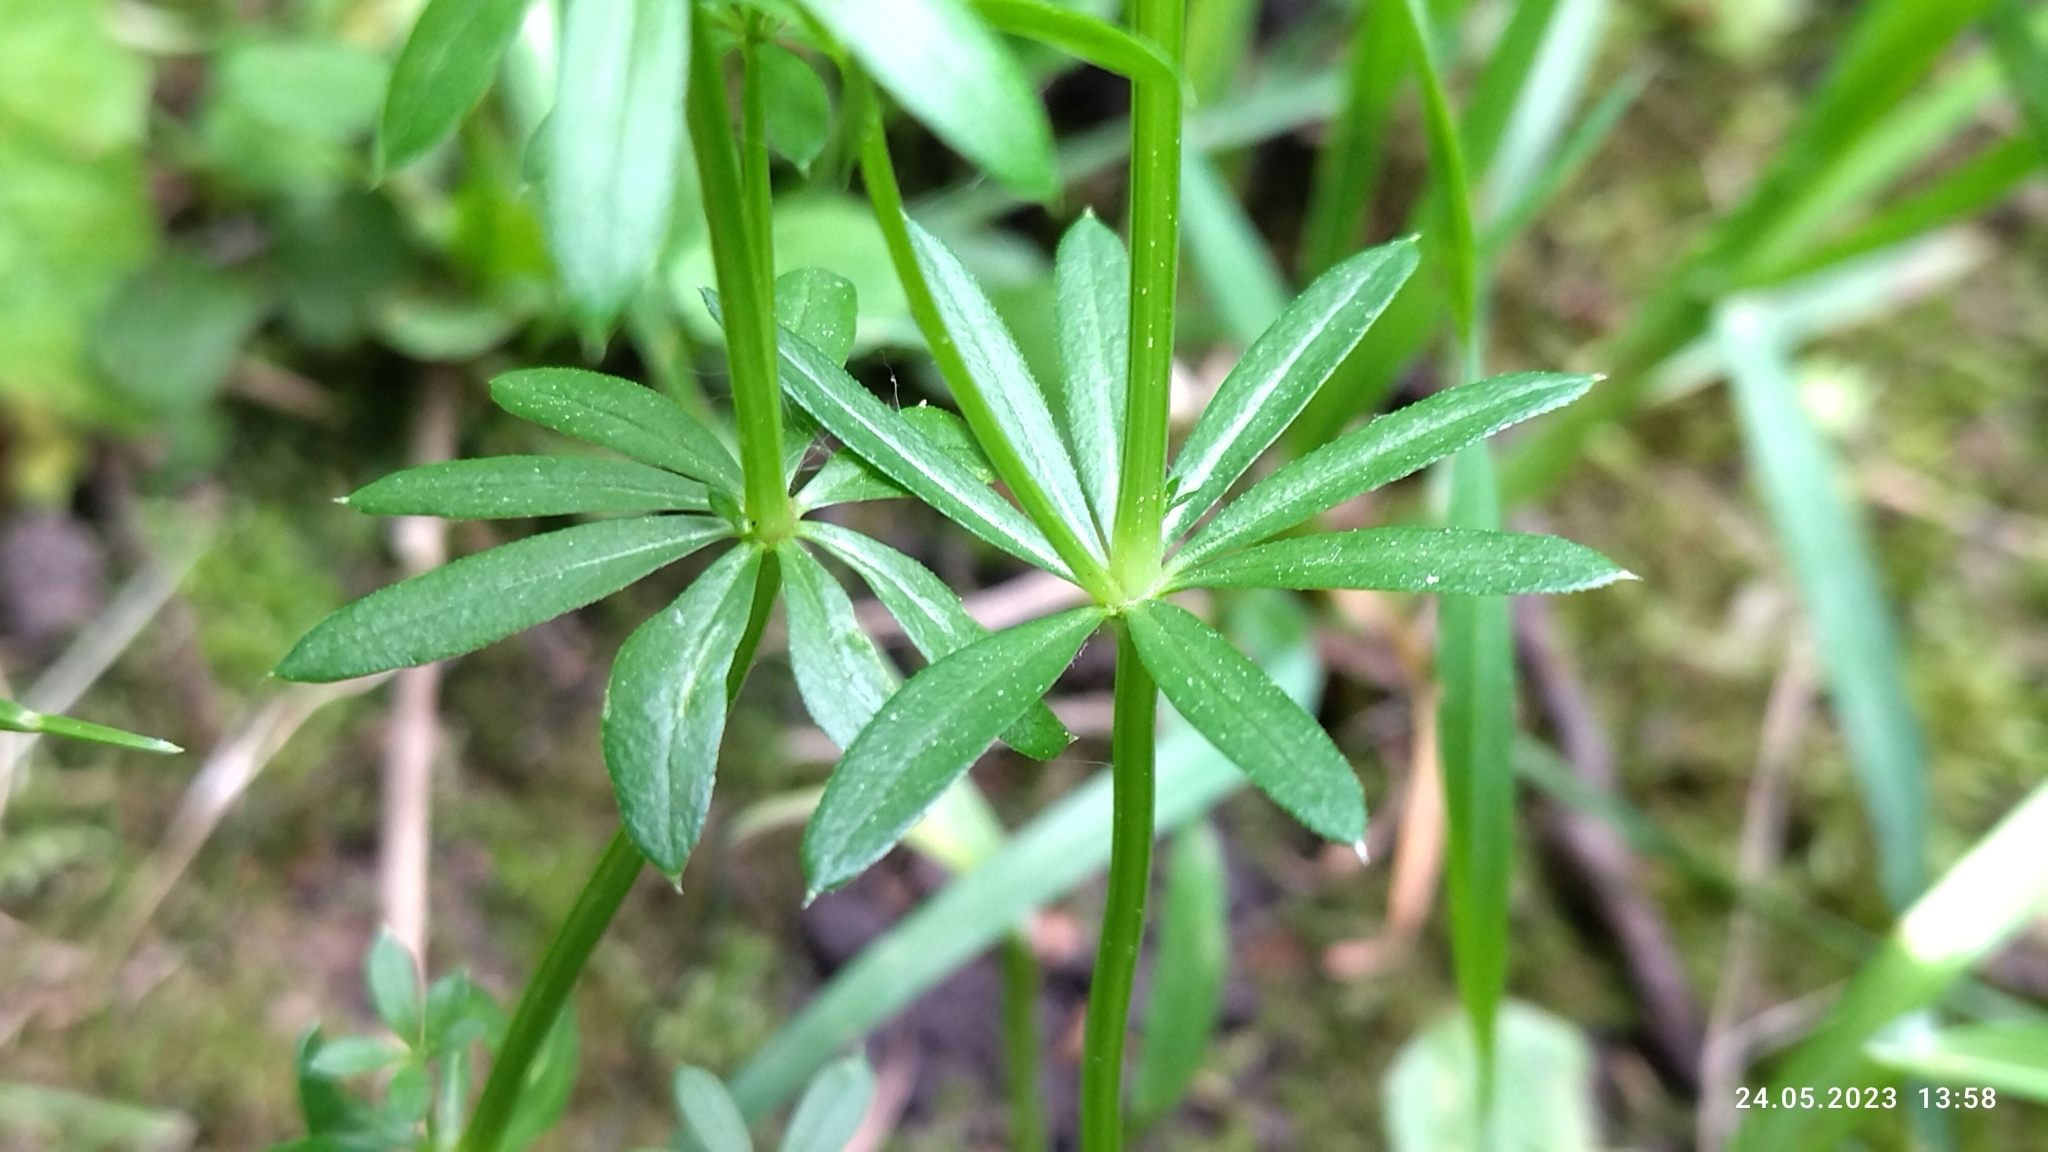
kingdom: Plantae
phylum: Tracheophyta
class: Magnoliopsida
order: Gentianales
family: Rubiaceae
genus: Galium
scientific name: Galium mollugo
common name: Hedge bedstraw
